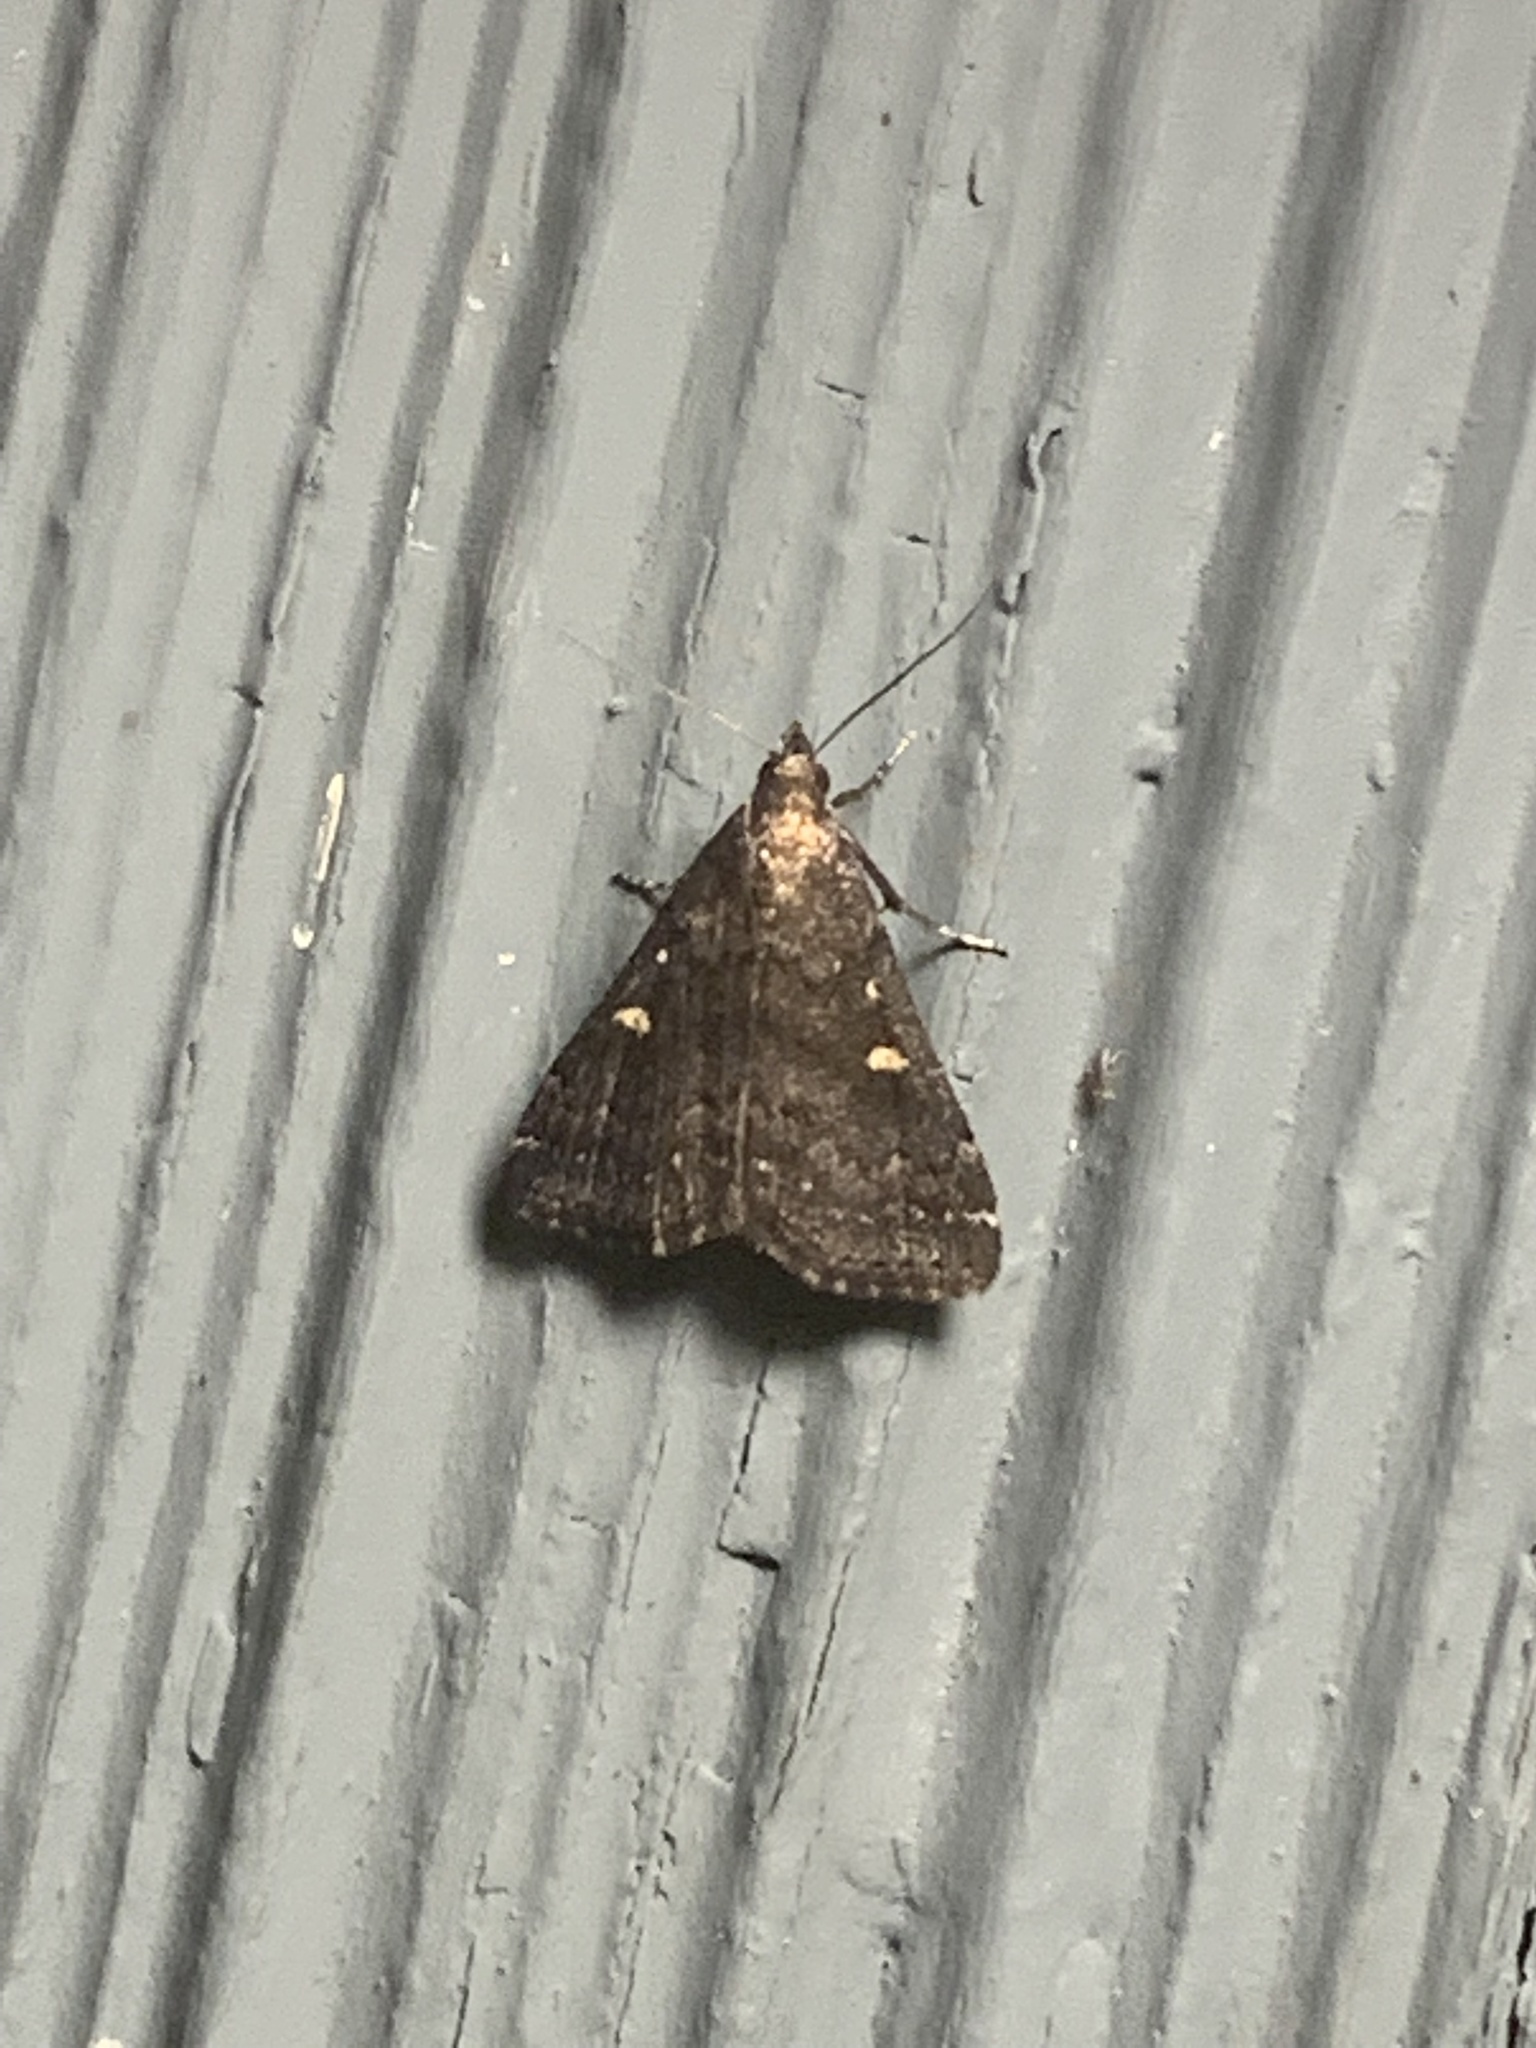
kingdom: Animalia
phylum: Arthropoda
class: Insecta
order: Lepidoptera
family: Erebidae
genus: Tetanolita
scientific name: Tetanolita mynesalis
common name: Smoky tetanolita moth
